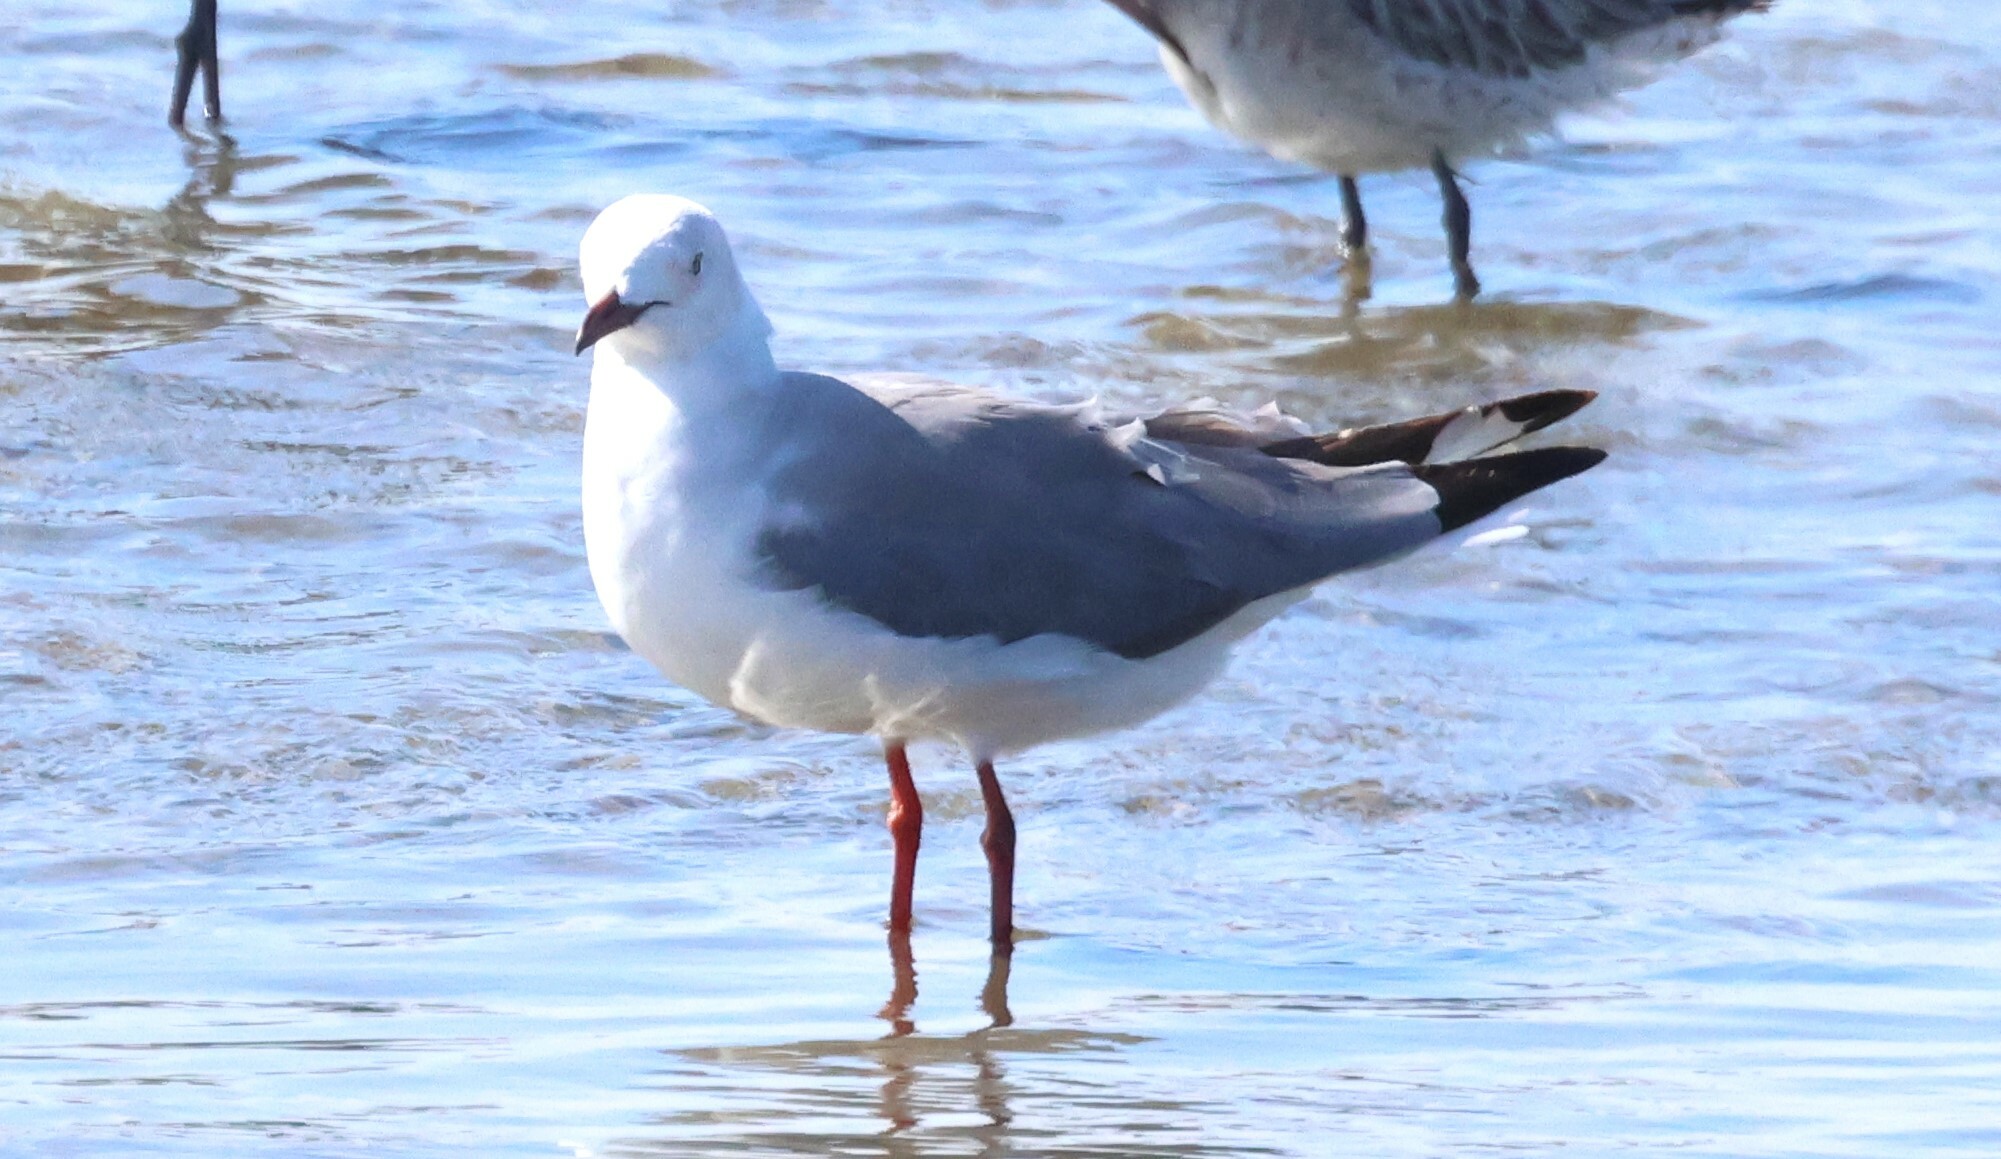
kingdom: Animalia
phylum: Chordata
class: Aves
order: Charadriiformes
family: Laridae
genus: Chroicocephalus
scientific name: Chroicocephalus hartlaubii
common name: Hartlaub's gull
